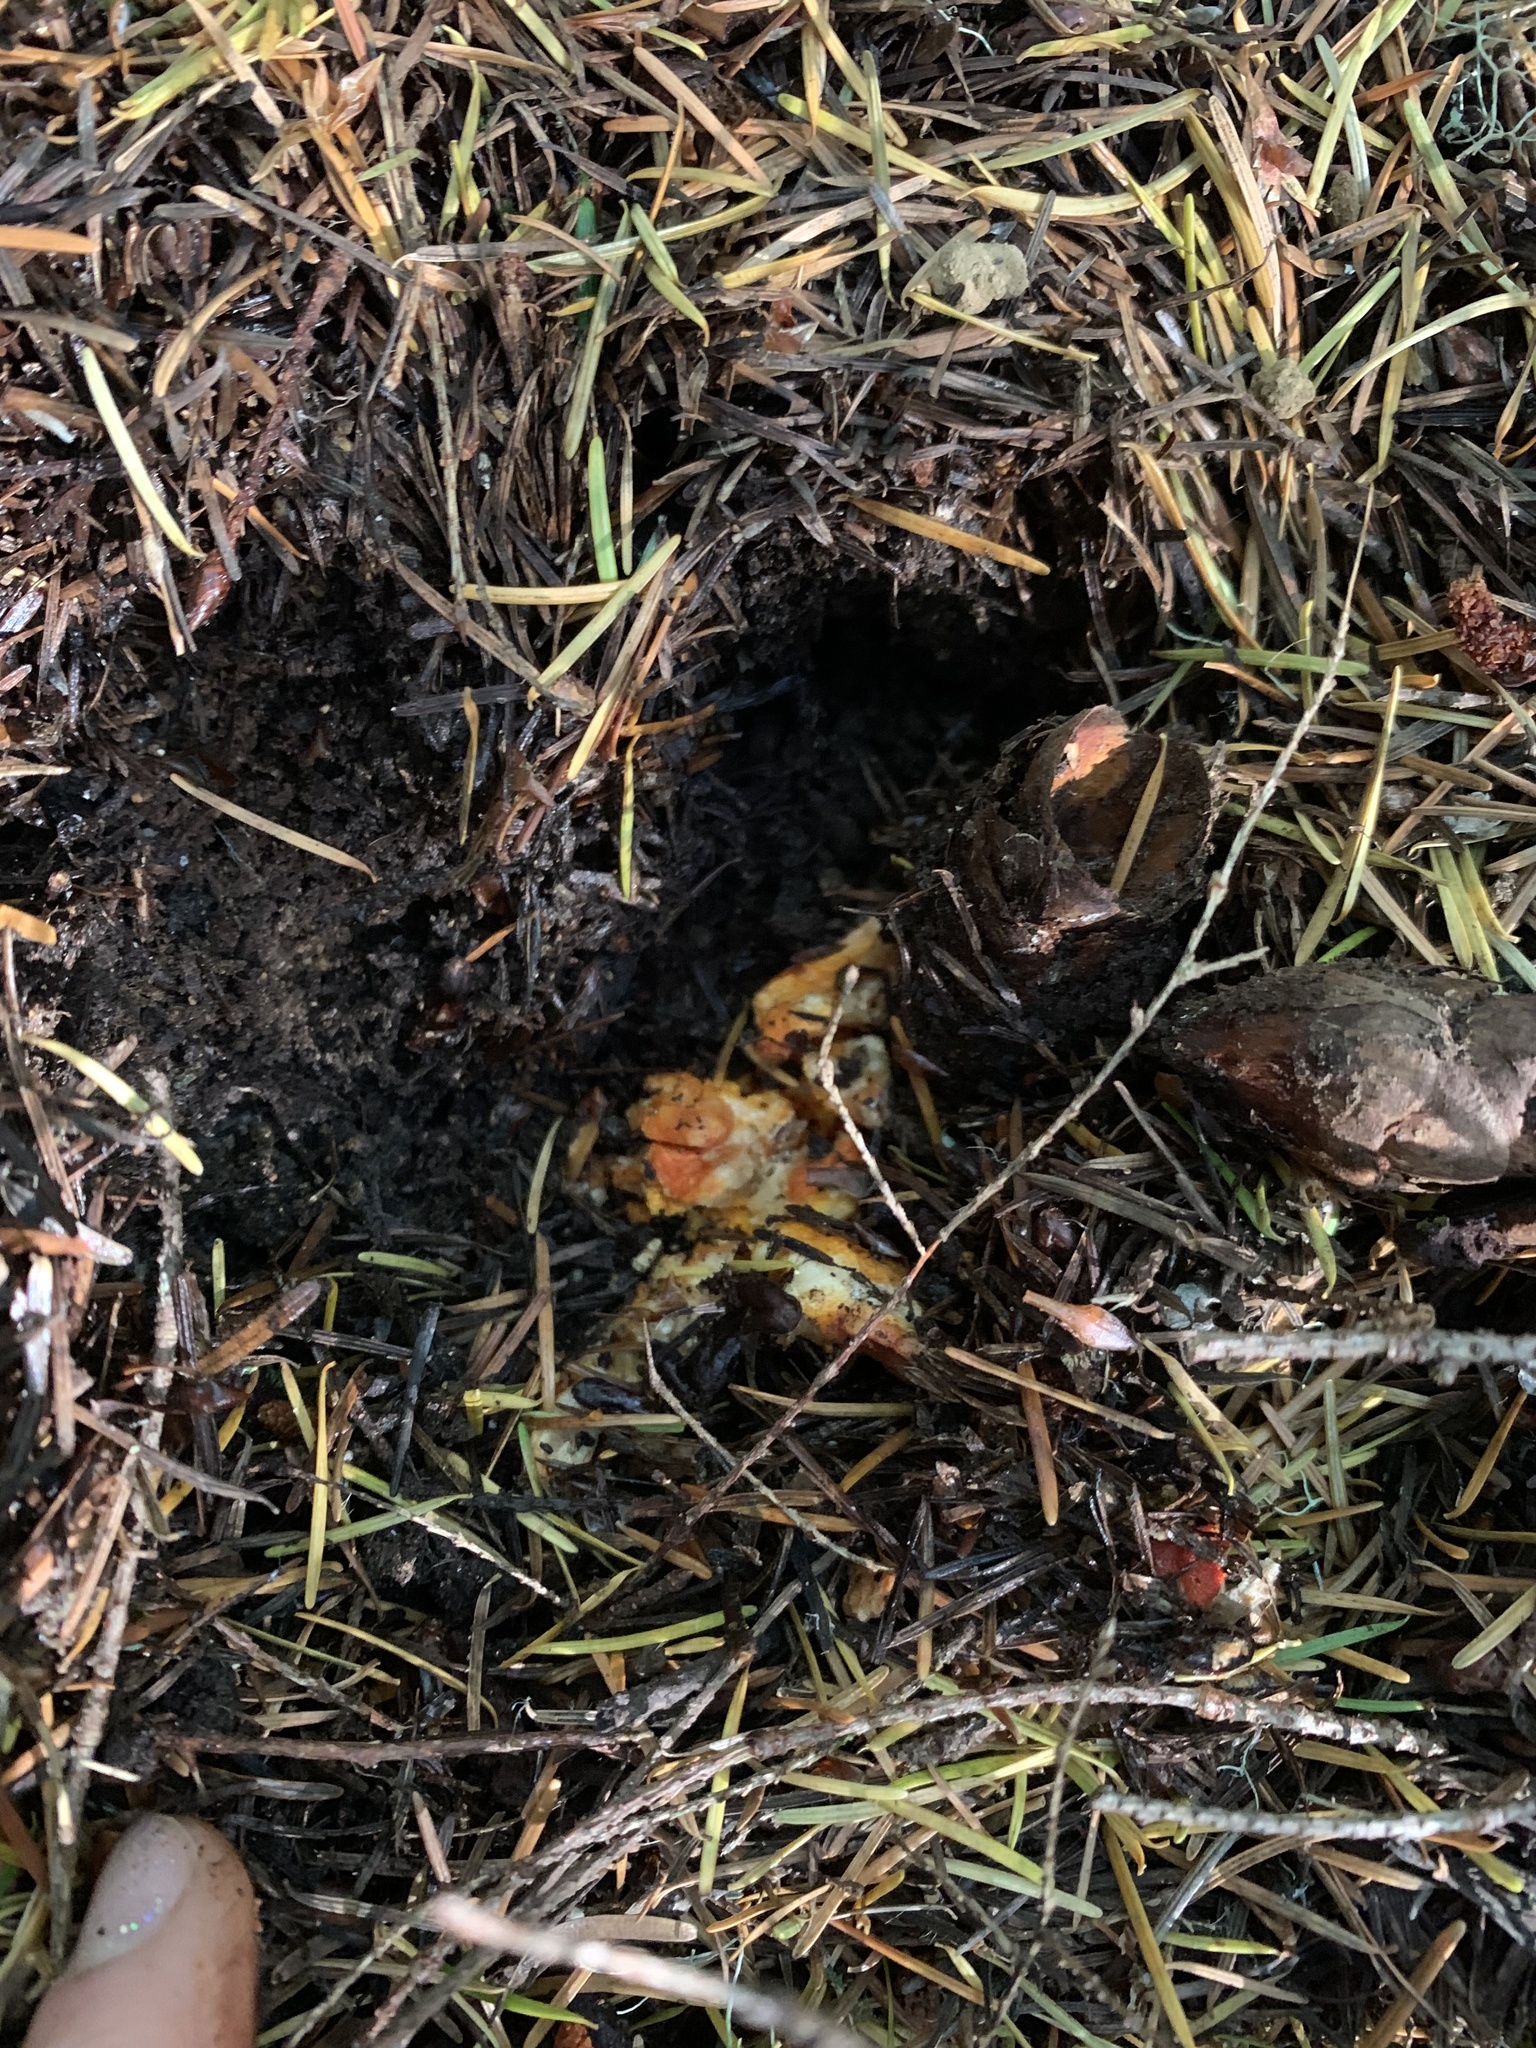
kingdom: Fungi
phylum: Ascomycota
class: Sordariomycetes
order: Hypocreales
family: Hypocreaceae
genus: Hypomyces
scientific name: Hypomyces lactifluorum
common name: Lobster mushroom
